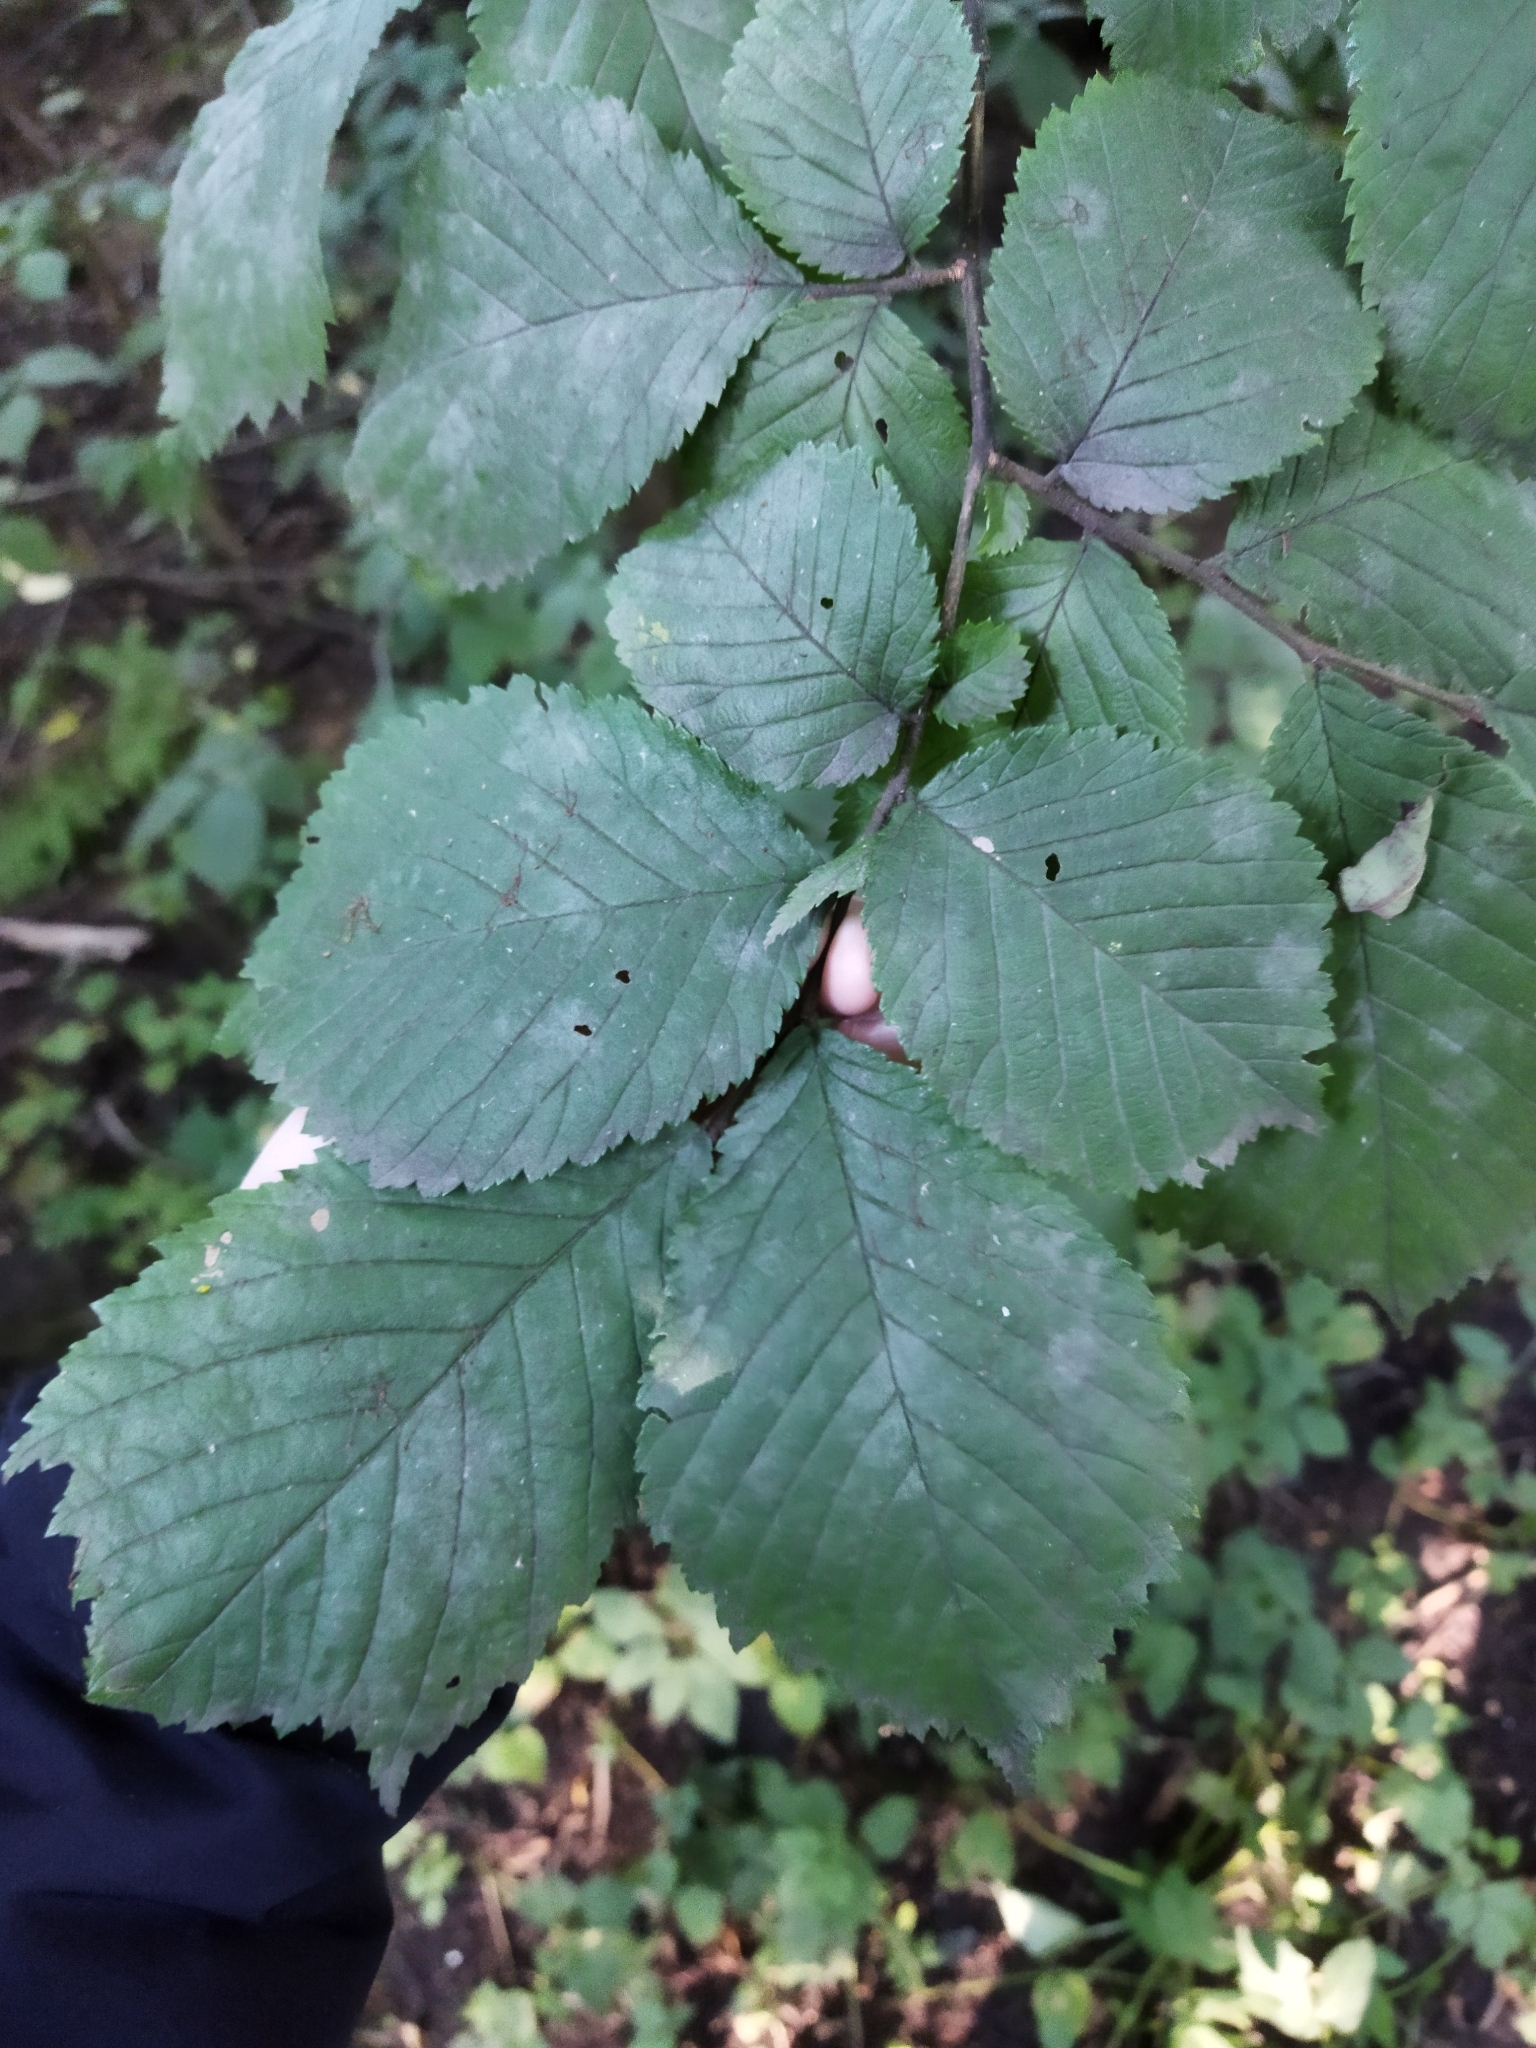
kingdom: Plantae
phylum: Tracheophyta
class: Magnoliopsida
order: Rosales
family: Ulmaceae
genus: Ulmus
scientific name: Ulmus glabra
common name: Wych elm
